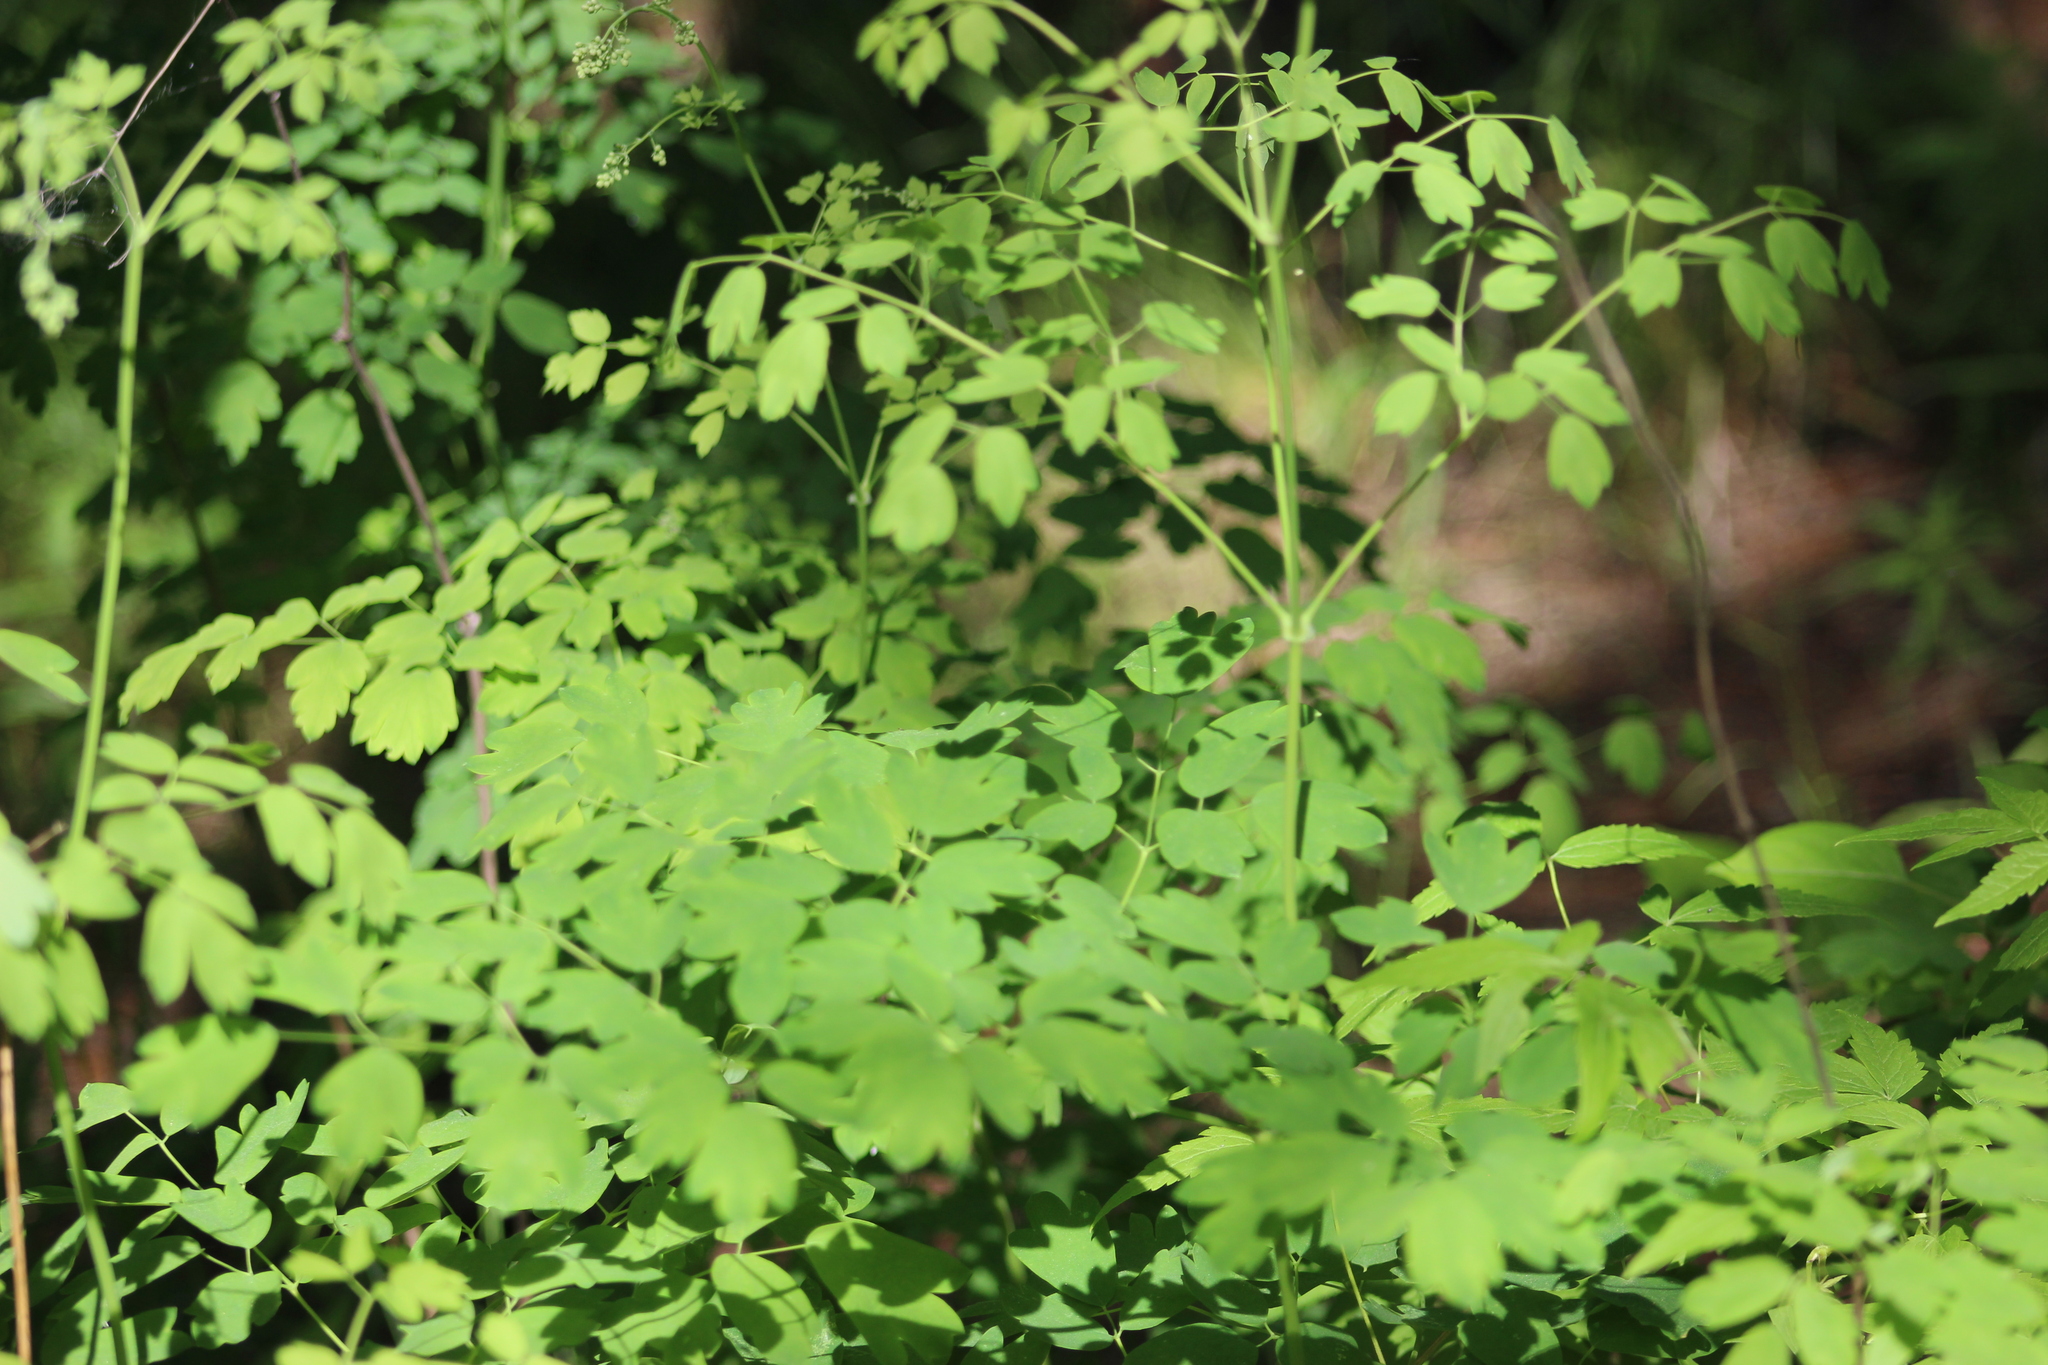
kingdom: Plantae
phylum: Tracheophyta
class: Magnoliopsida
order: Ranunculales
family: Ranunculaceae
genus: Thalictrum
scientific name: Thalictrum minus
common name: Lesser meadow-rue
